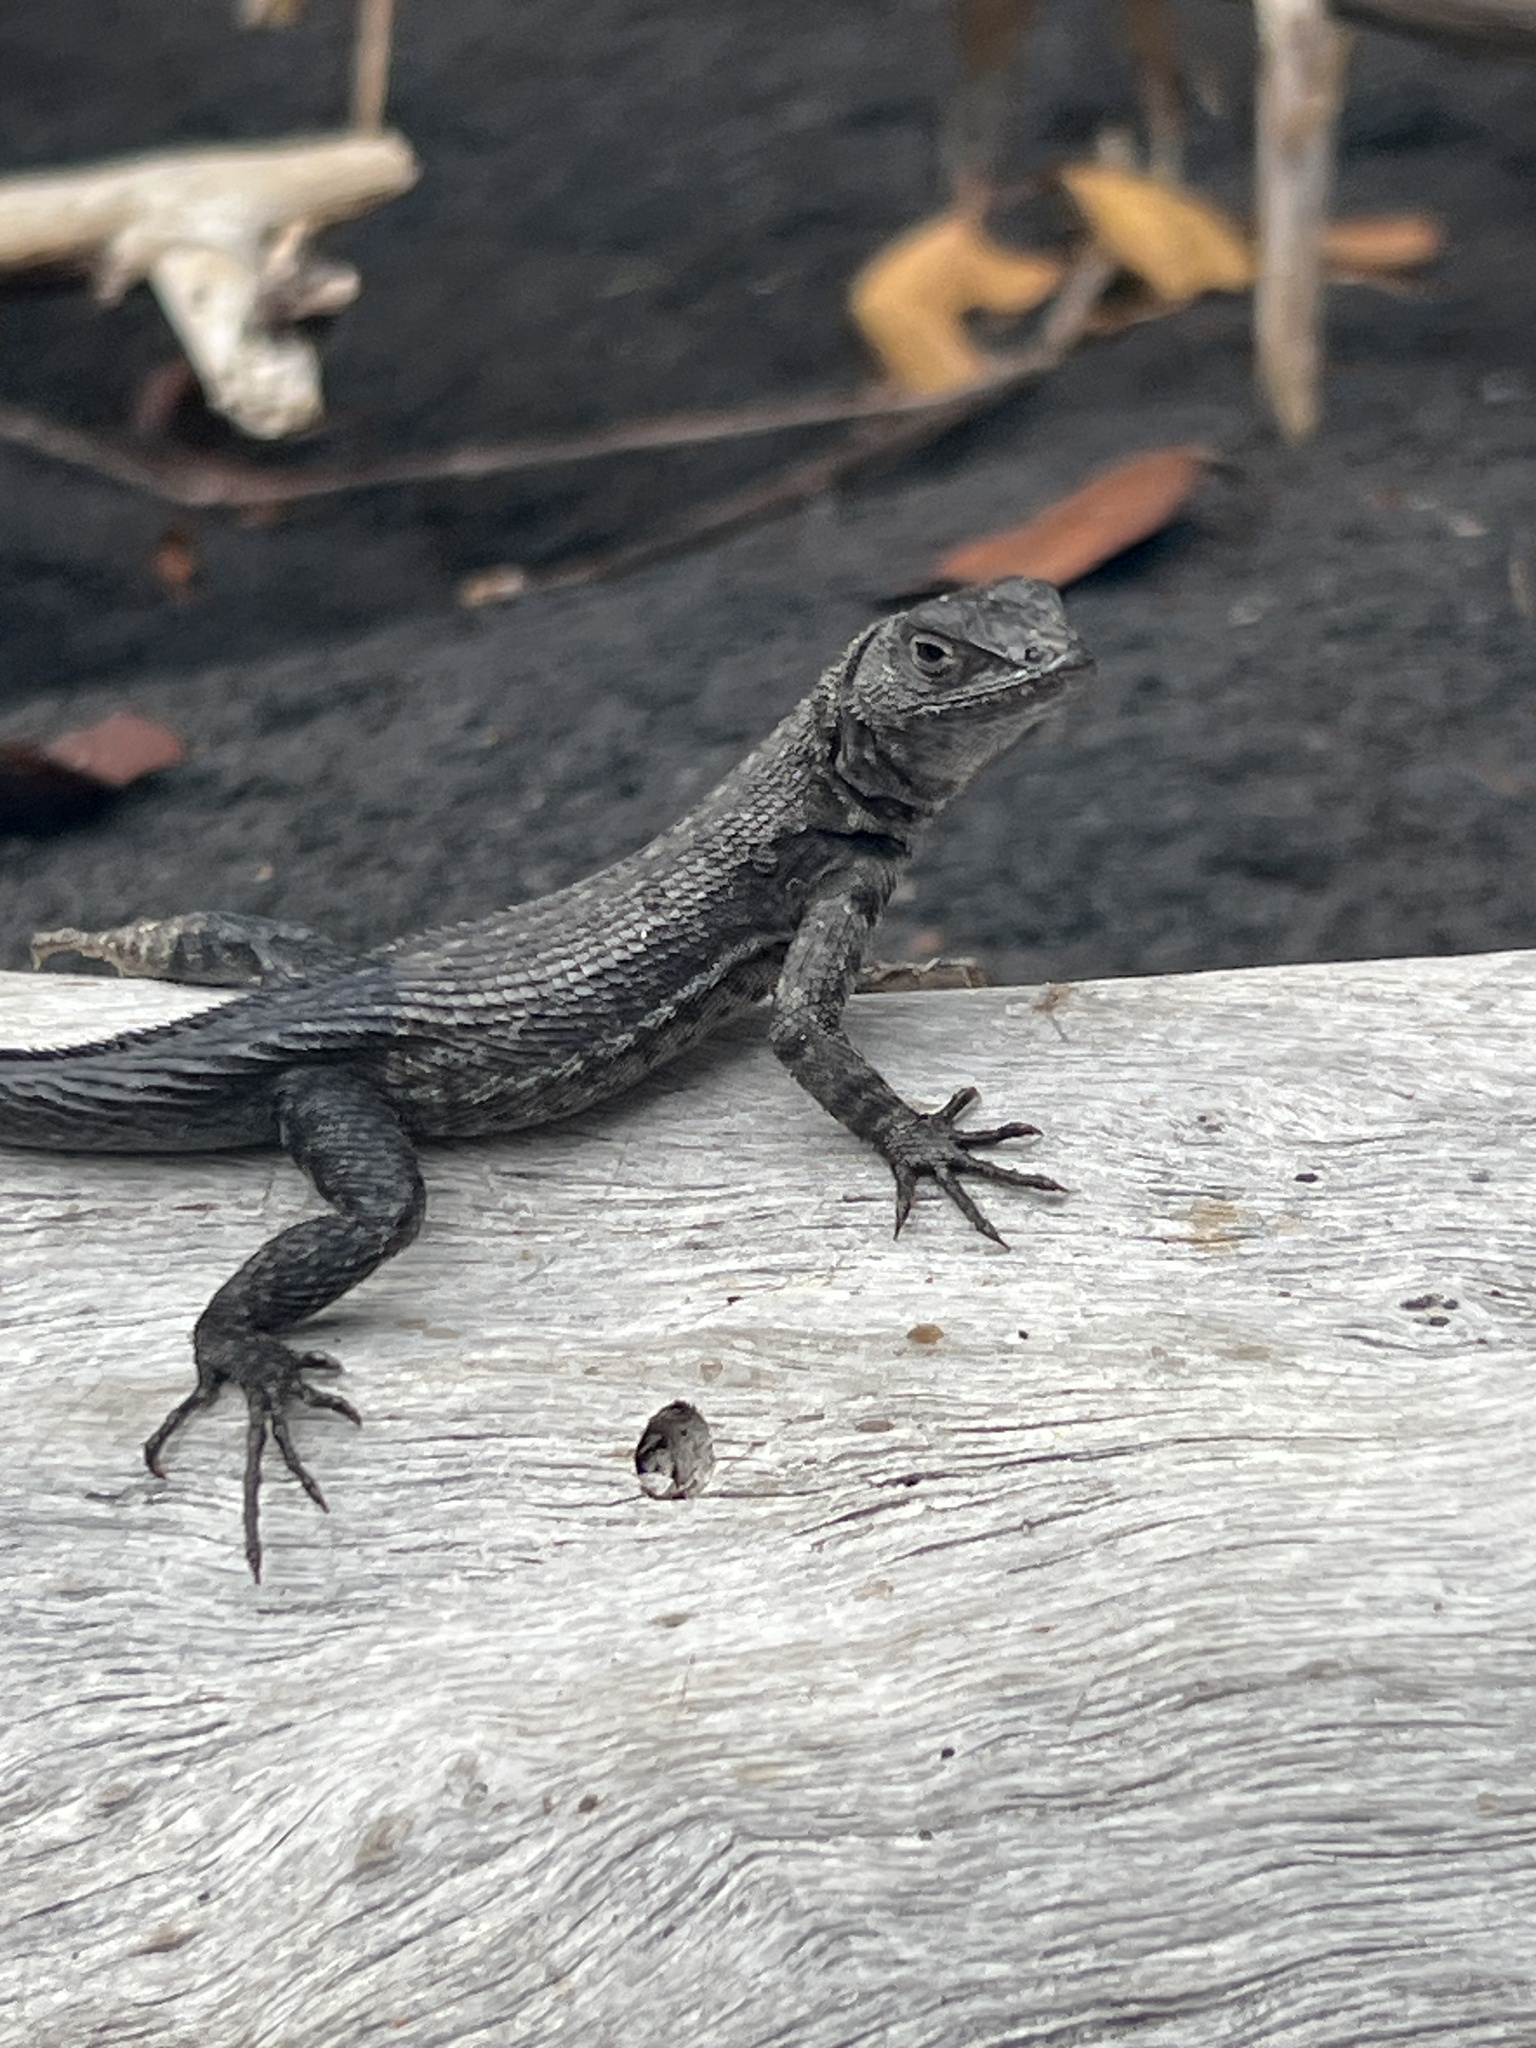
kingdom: Animalia
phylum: Chordata
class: Squamata
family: Tropiduridae
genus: Microlophus
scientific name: Microlophus albemarlensis
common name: Galapagos lava lizard
